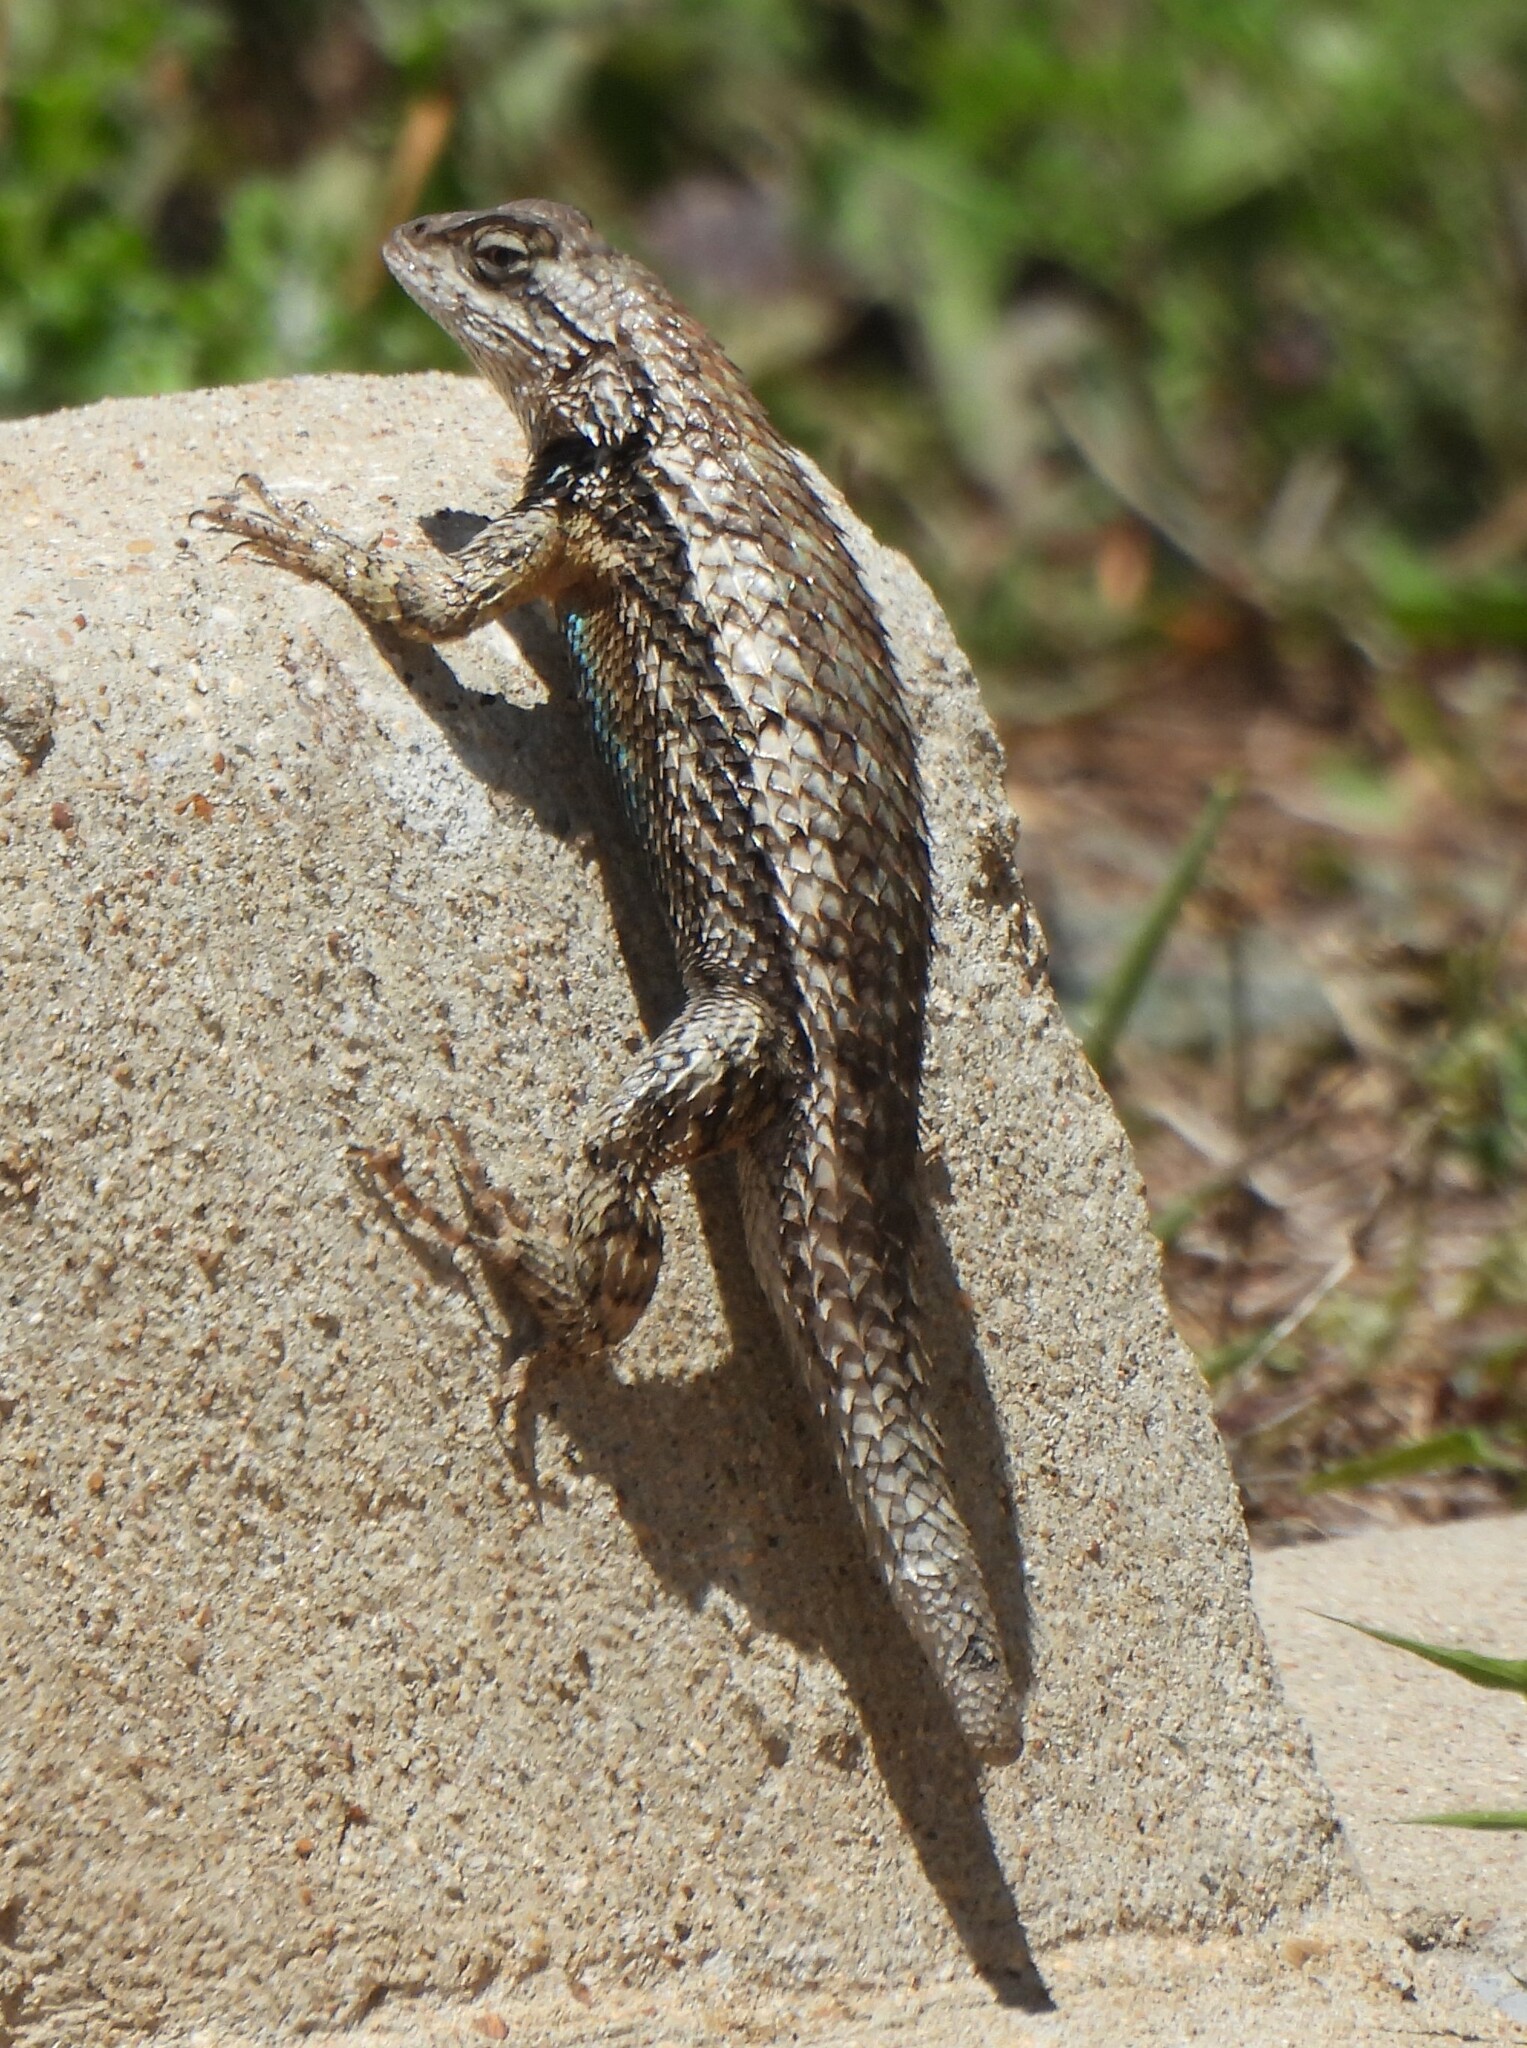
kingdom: Animalia
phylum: Chordata
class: Squamata
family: Phrynosomatidae
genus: Sceloporus
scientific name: Sceloporus olivaceus
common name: Texas spiny lizard
